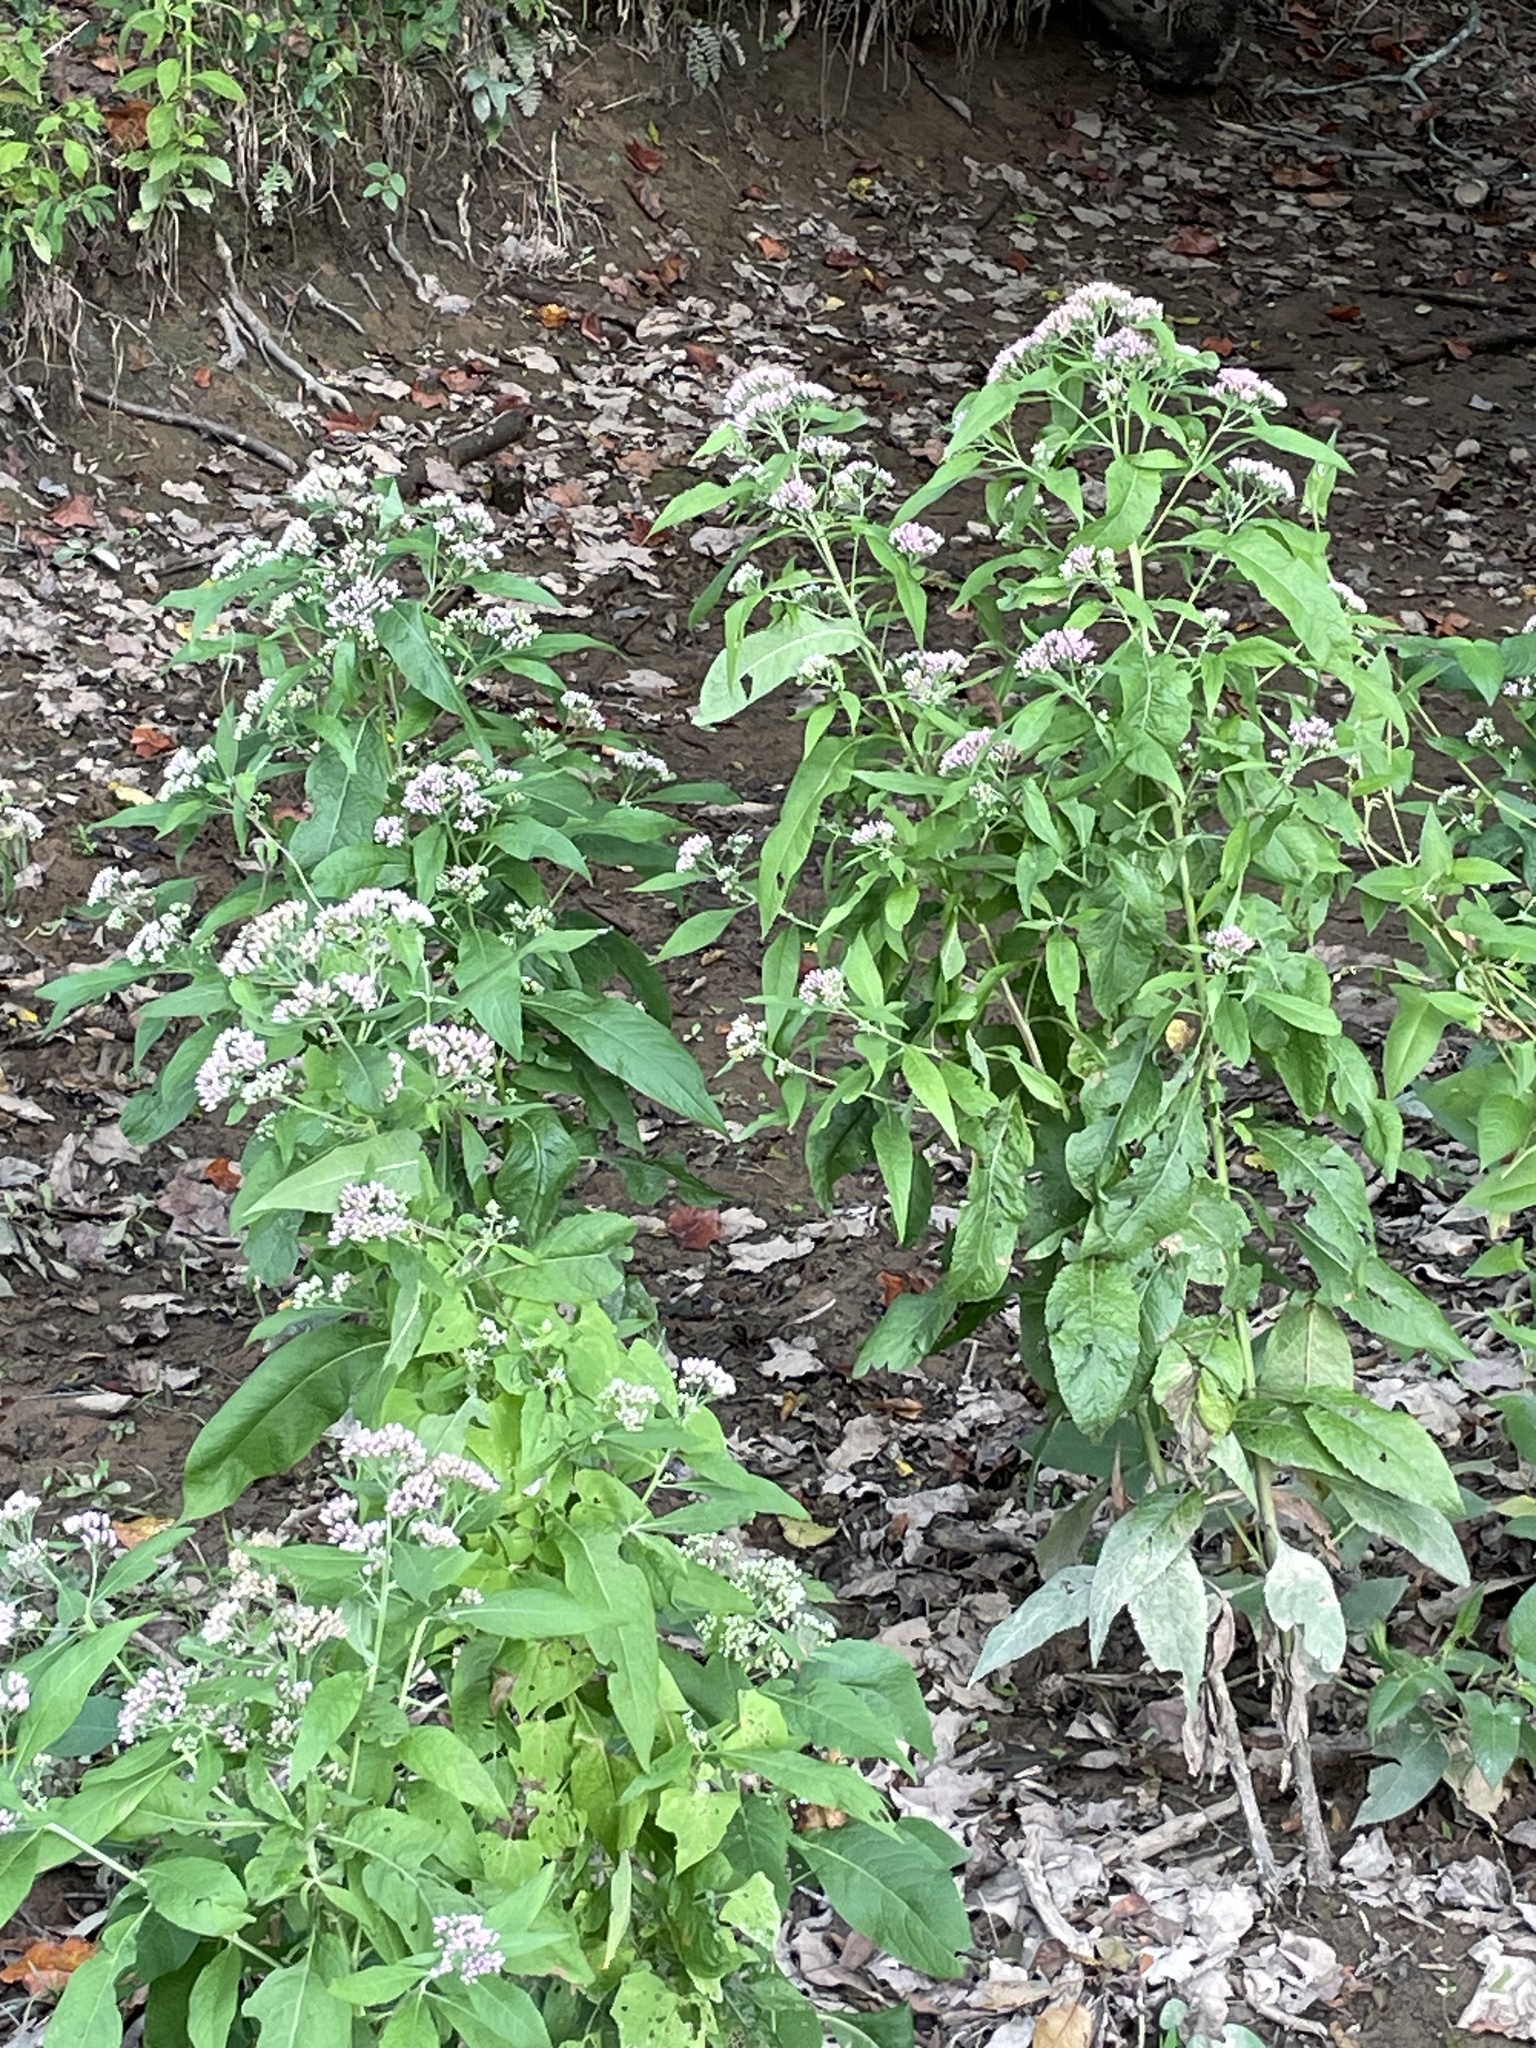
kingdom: Plantae
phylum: Tracheophyta
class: Magnoliopsida
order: Asterales
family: Asteraceae
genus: Pluchea
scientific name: Pluchea camphorata
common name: Camphor pluchea
